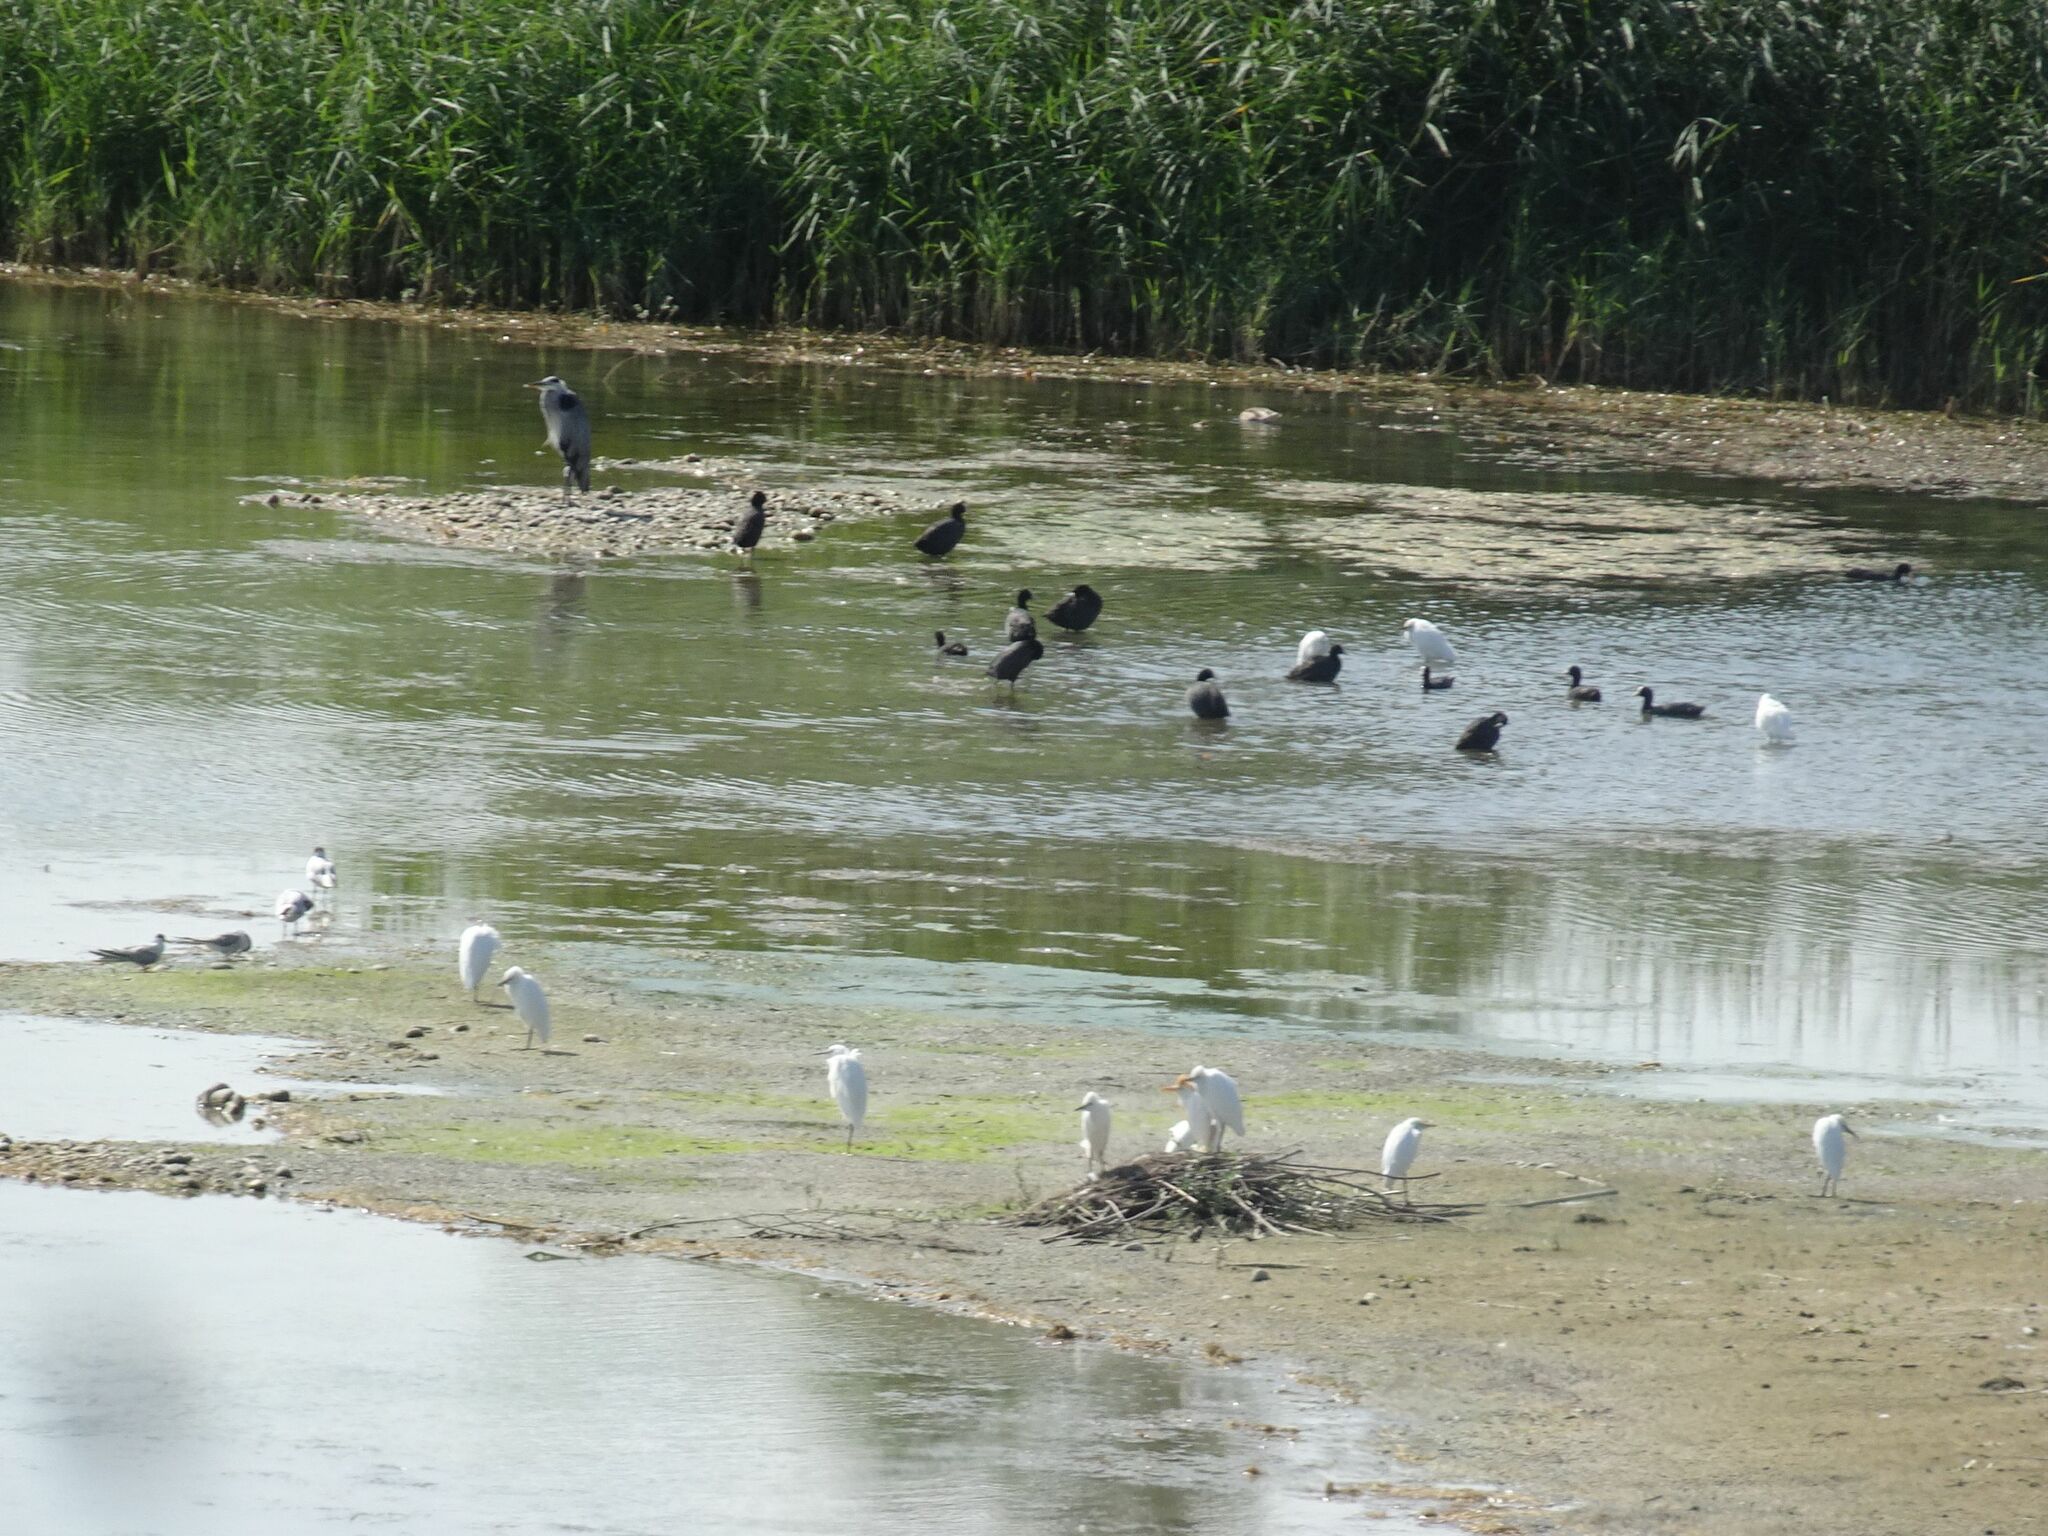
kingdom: Animalia
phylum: Chordata
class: Aves
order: Pelecaniformes
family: Ardeidae
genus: Egretta
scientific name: Egretta garzetta
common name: Little egret
